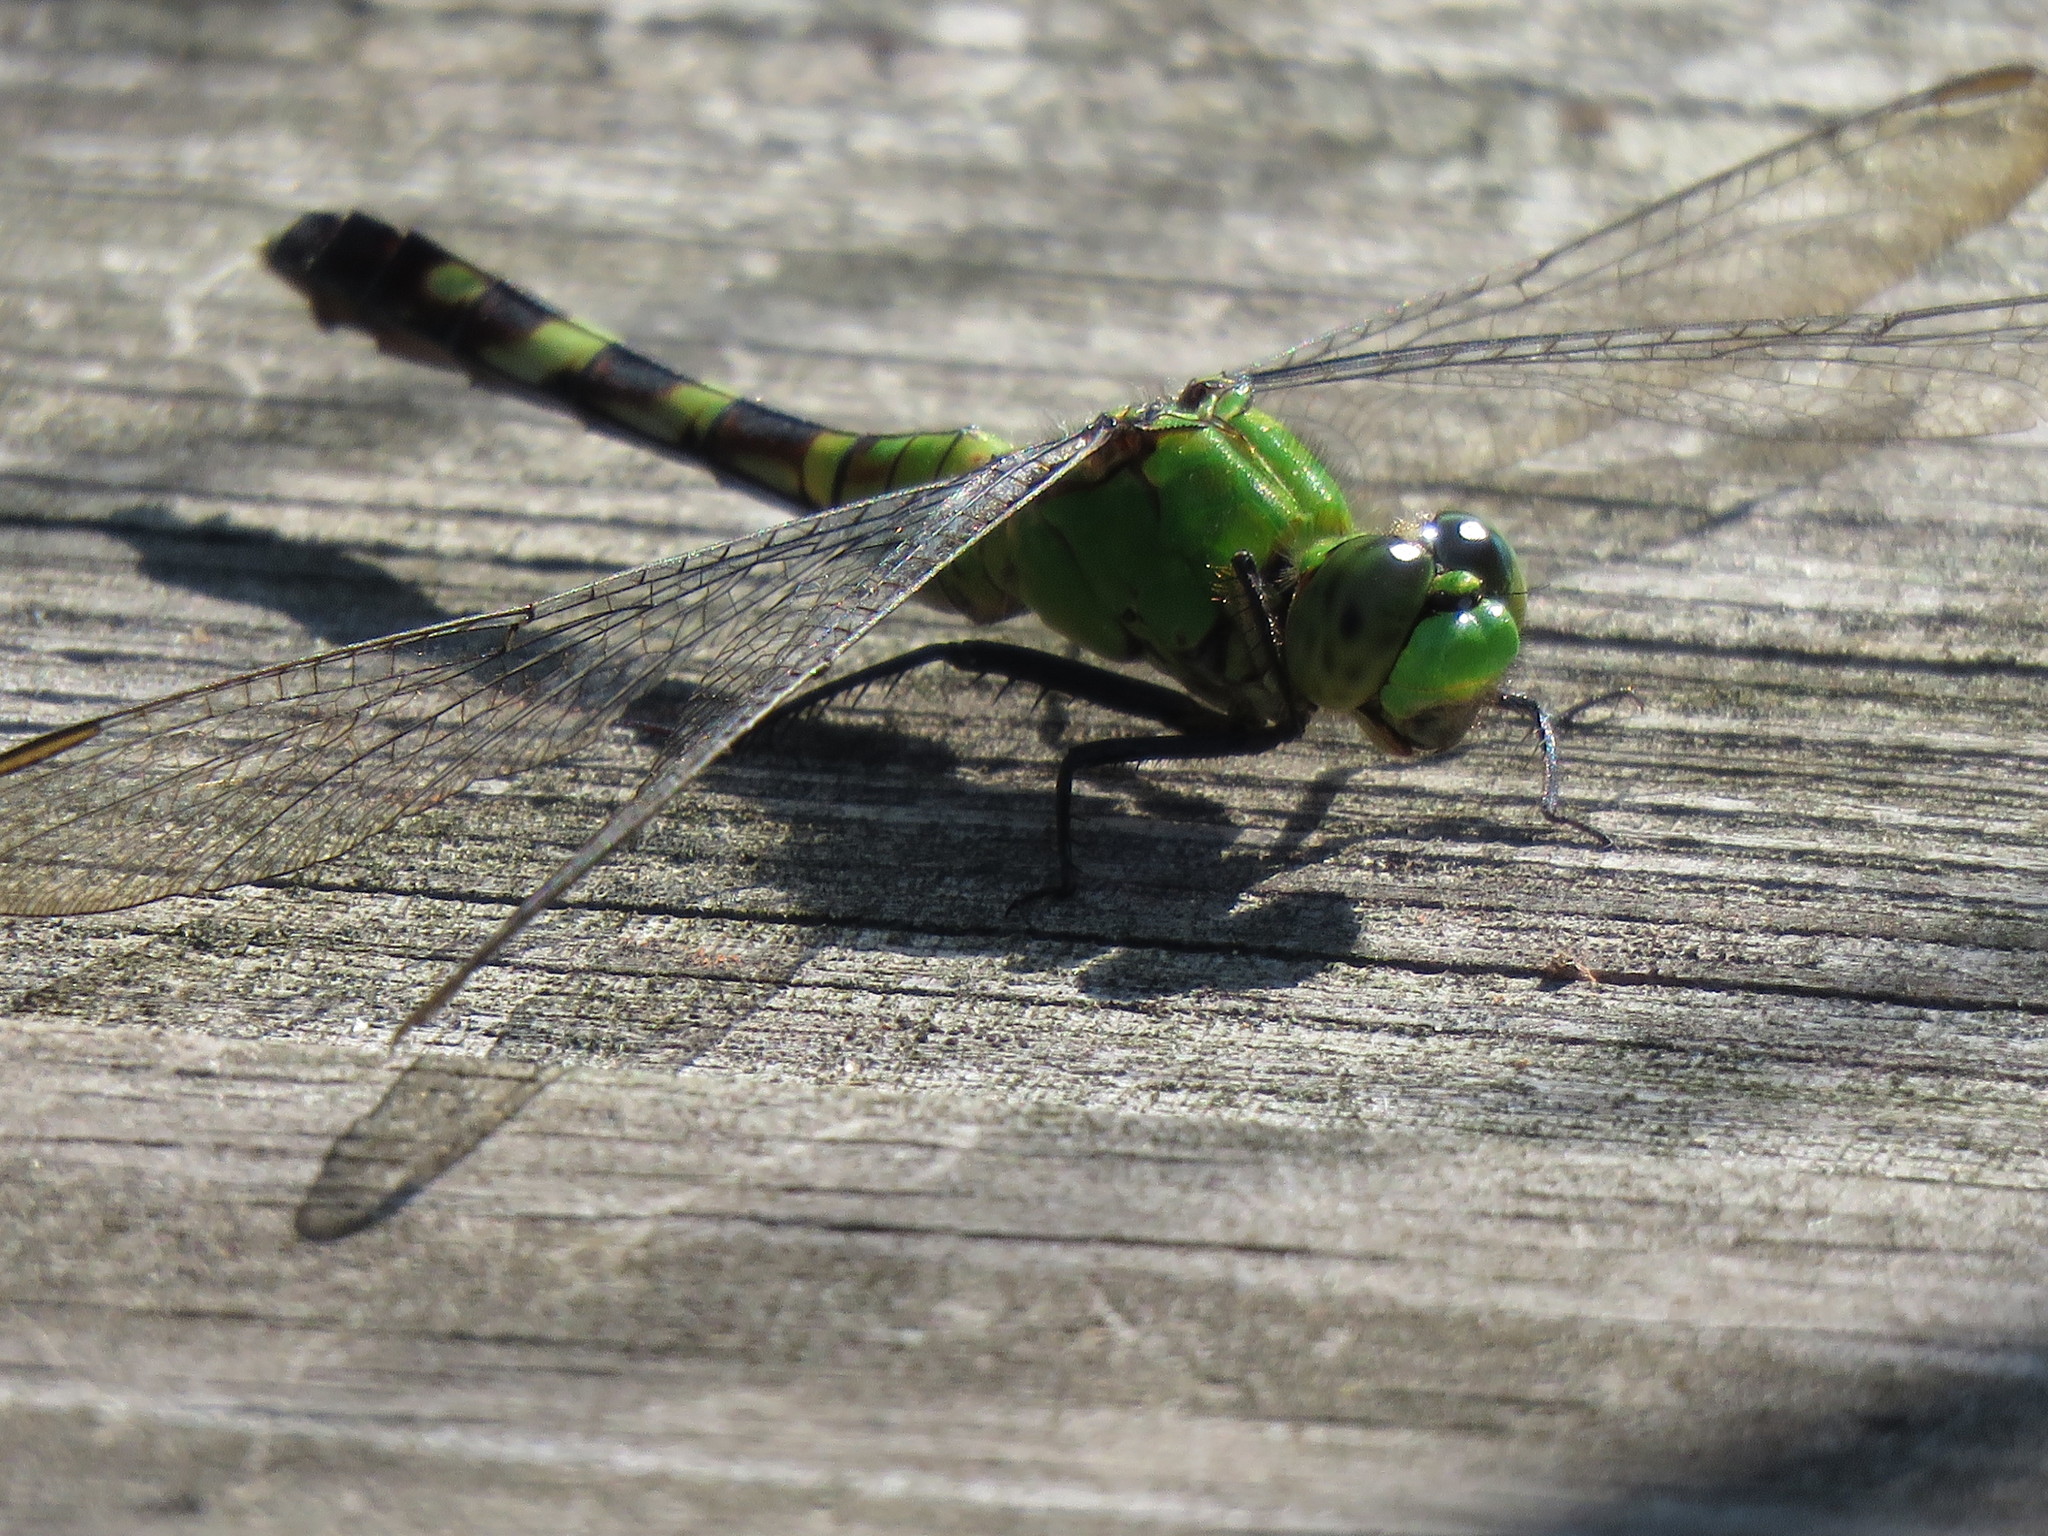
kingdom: Animalia
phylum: Arthropoda
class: Insecta
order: Odonata
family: Libellulidae
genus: Erythemis
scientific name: Erythemis simplicicollis
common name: Eastern pondhawk
